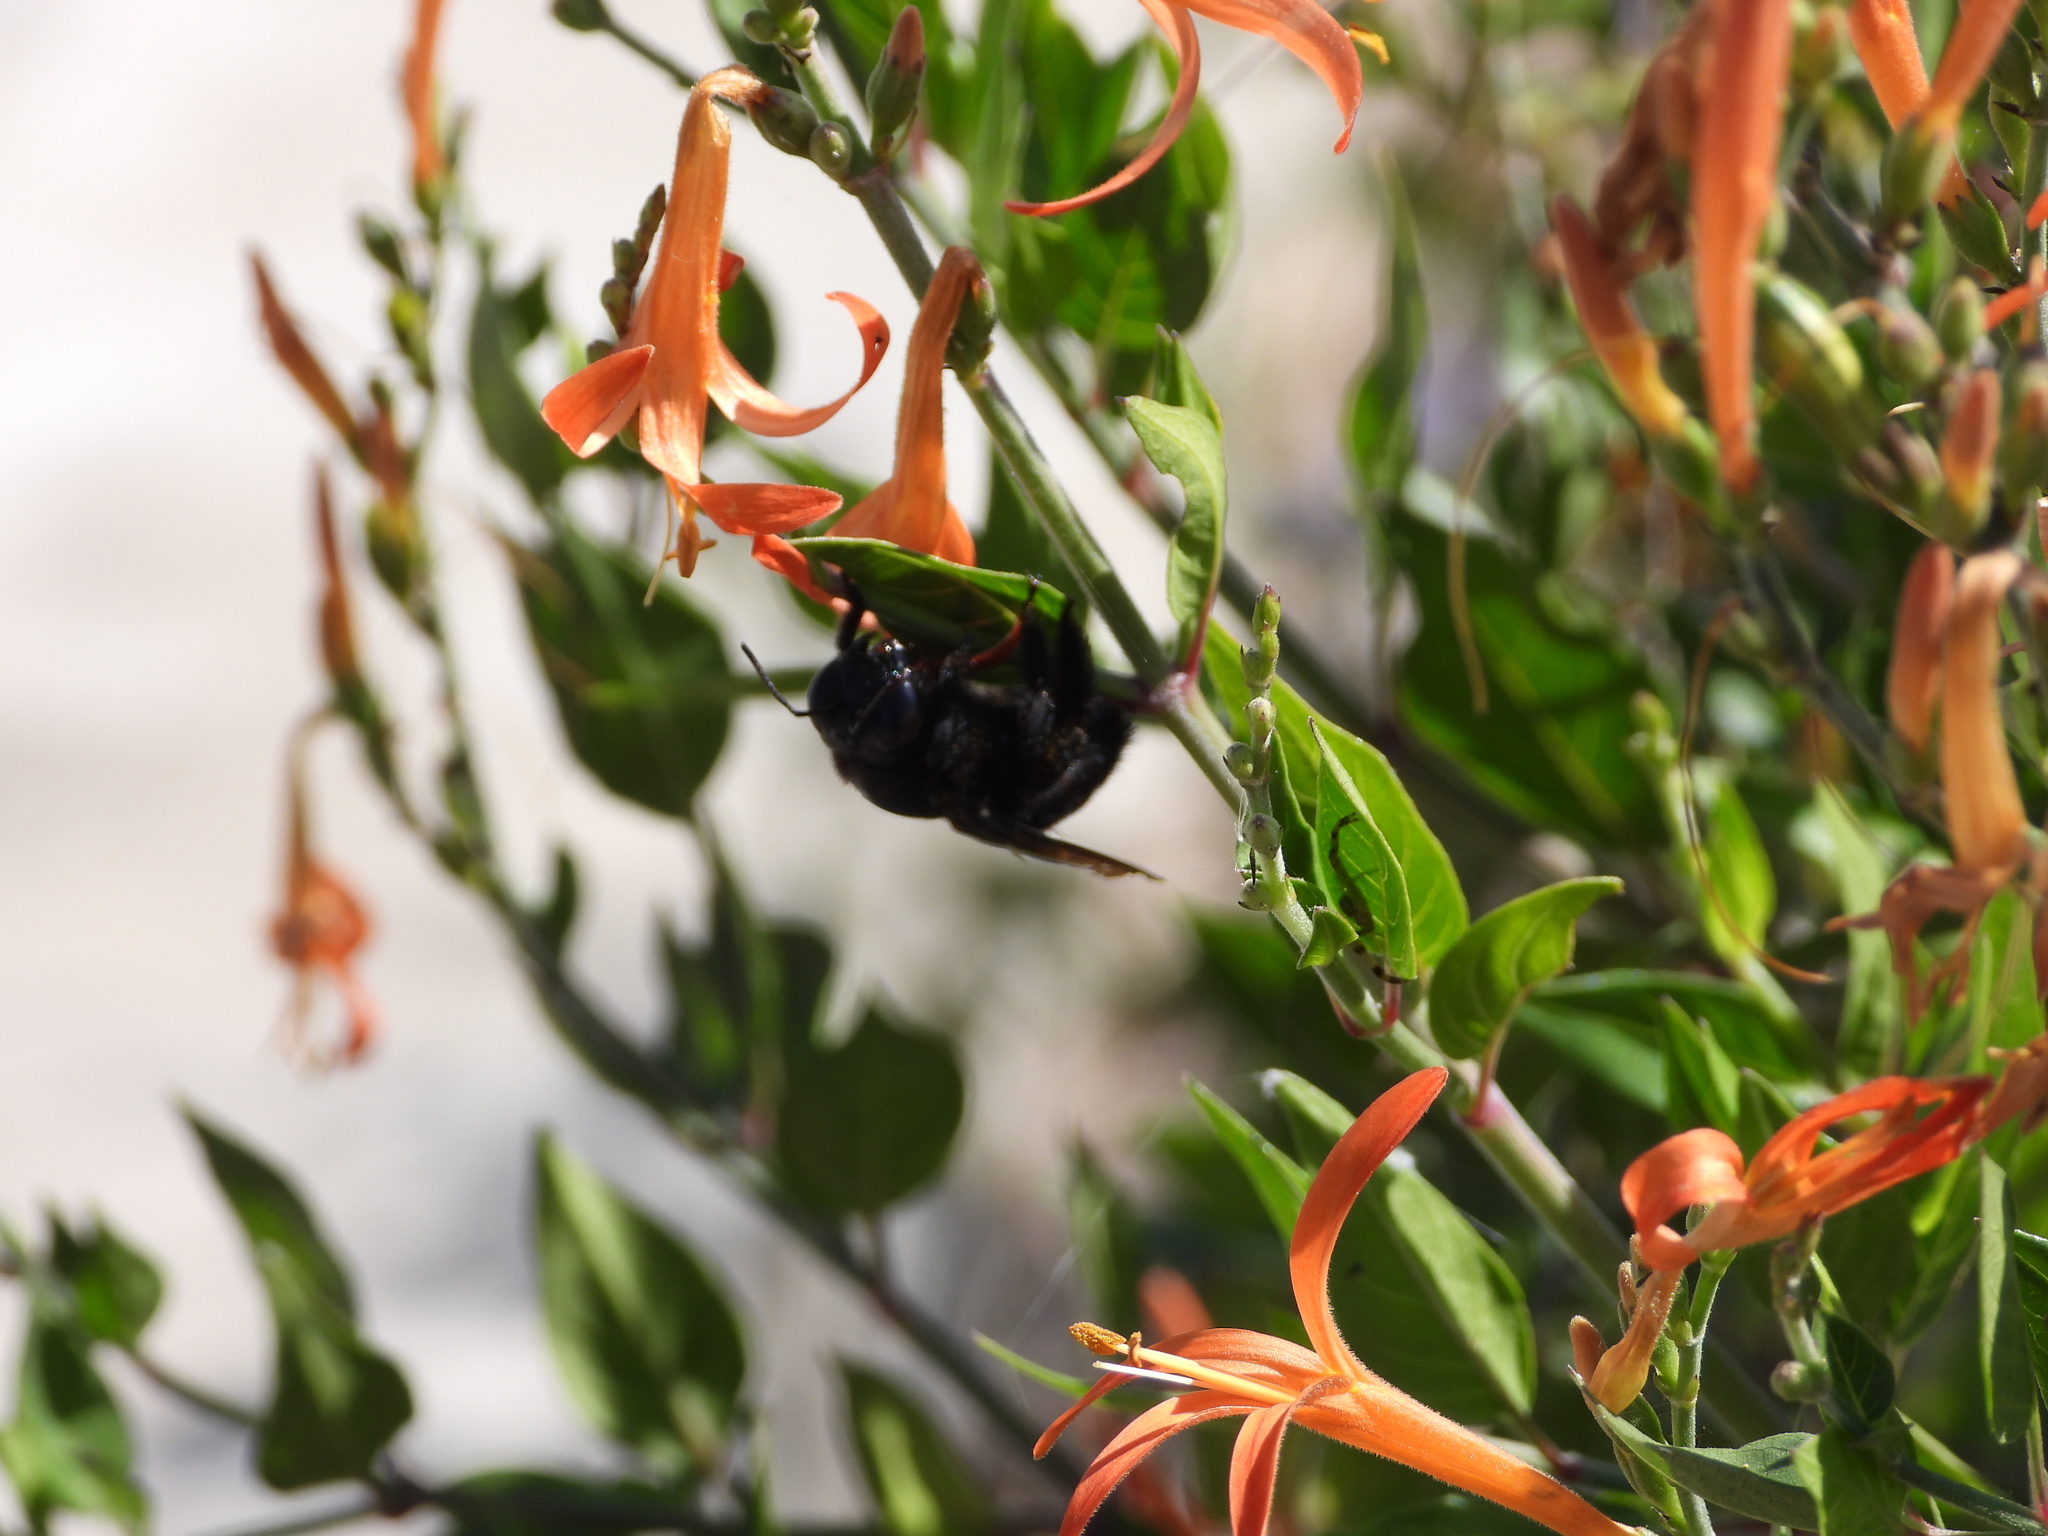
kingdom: Animalia
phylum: Arthropoda
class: Insecta
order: Hymenoptera
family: Apidae
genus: Xylocopa
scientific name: Xylocopa micans
